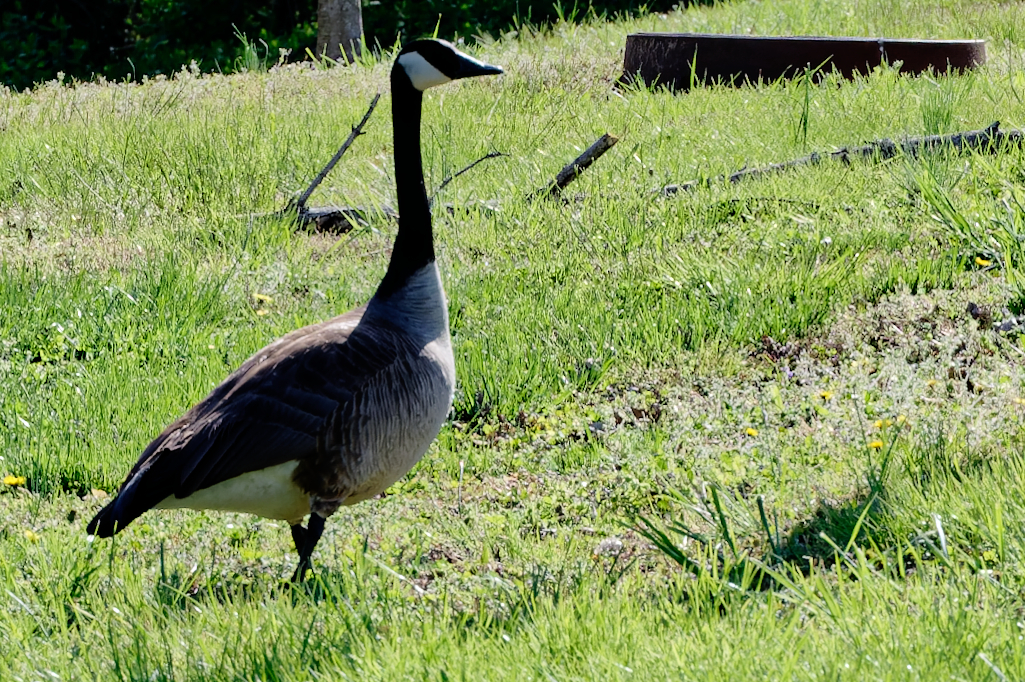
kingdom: Animalia
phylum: Chordata
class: Aves
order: Anseriformes
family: Anatidae
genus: Branta
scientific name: Branta canadensis
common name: Canada goose
